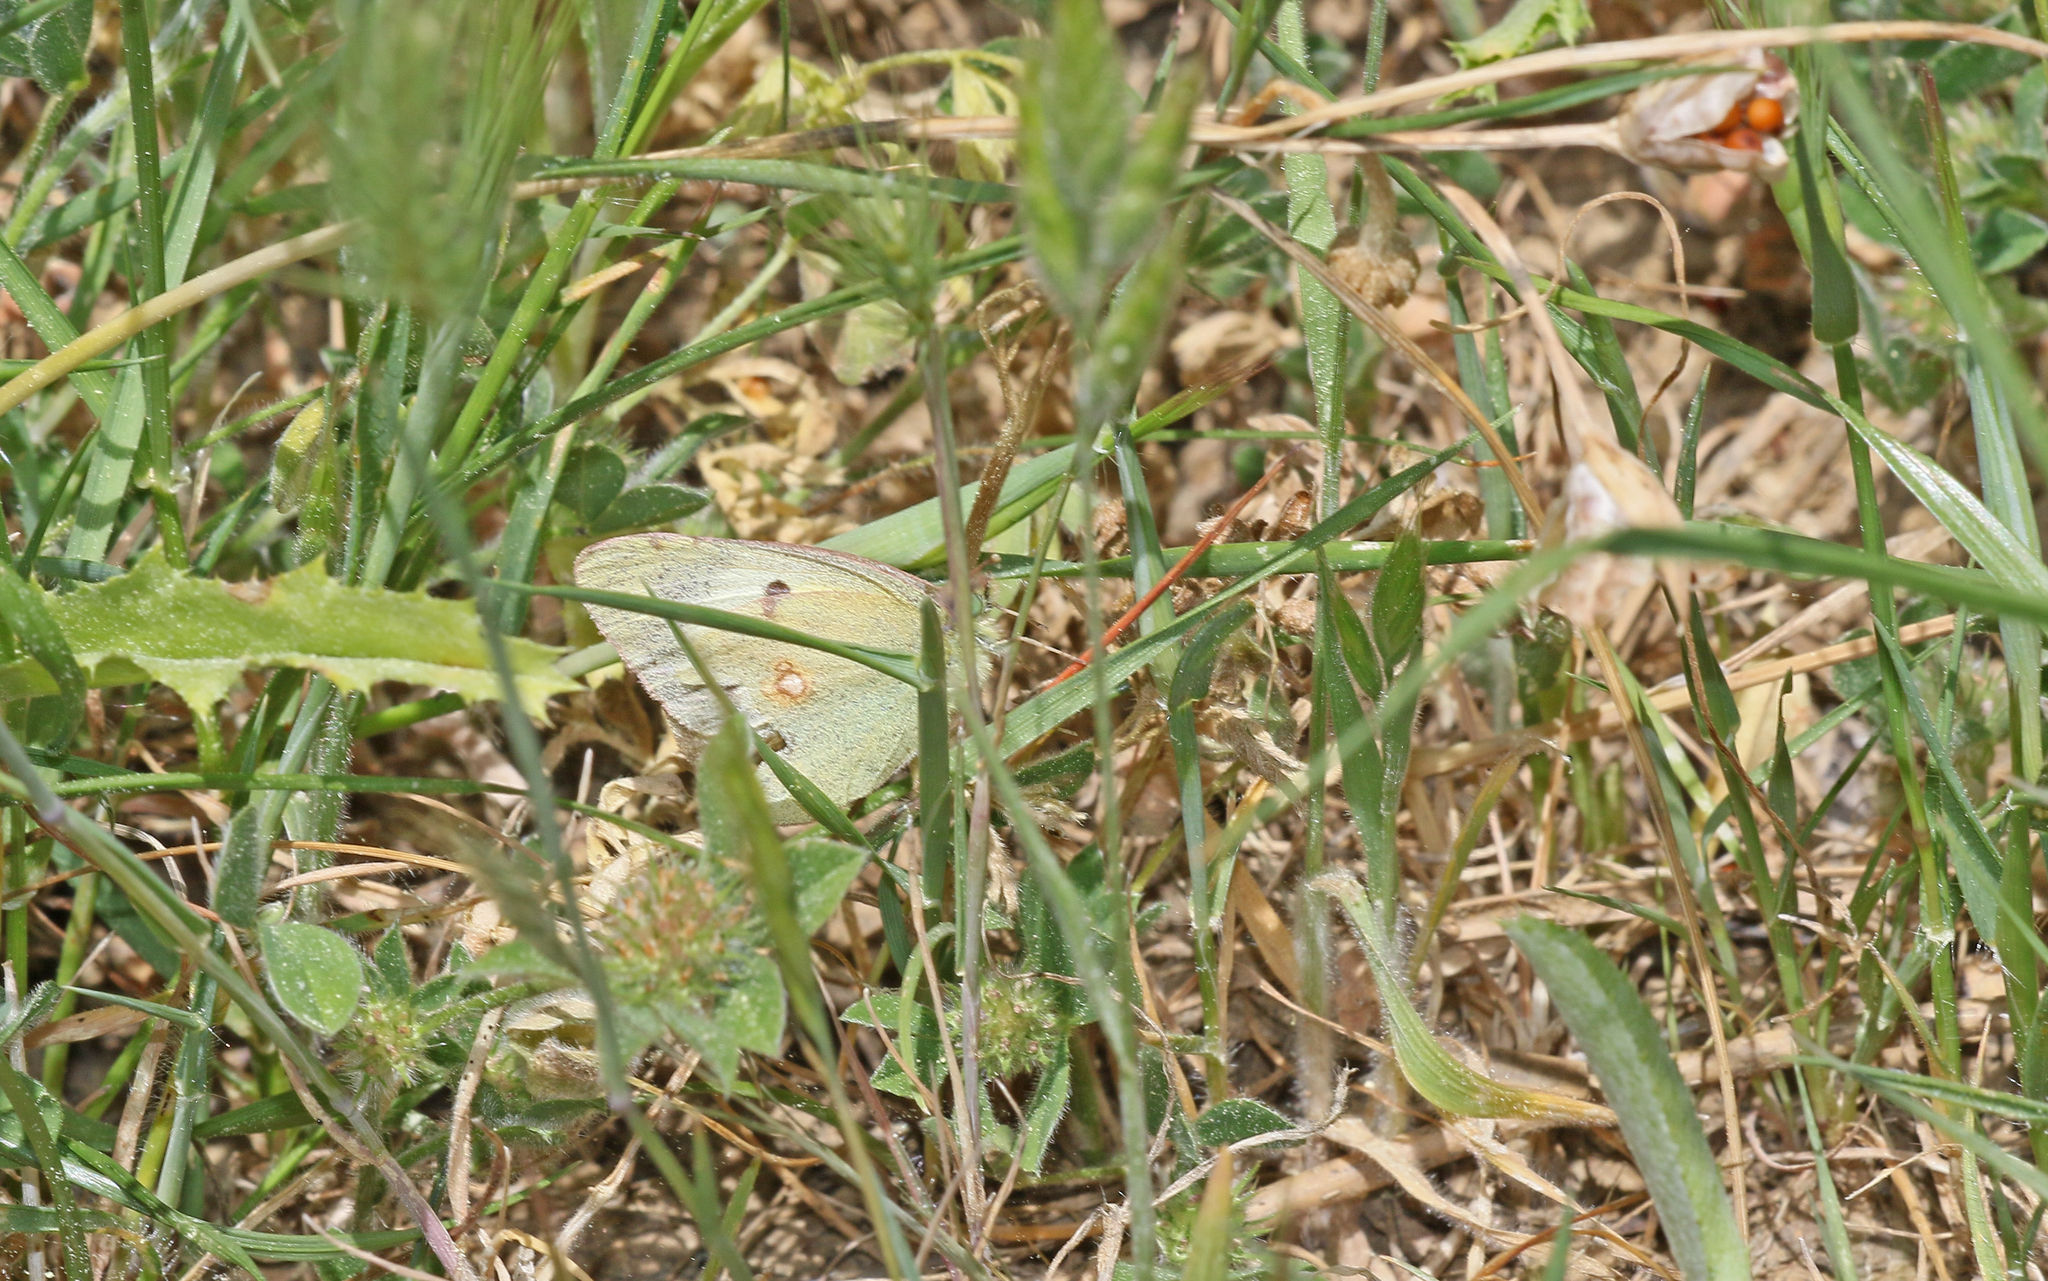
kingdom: Animalia
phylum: Arthropoda
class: Insecta
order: Lepidoptera
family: Pieridae
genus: Colias
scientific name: Colias croceus
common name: Clouded yellow
